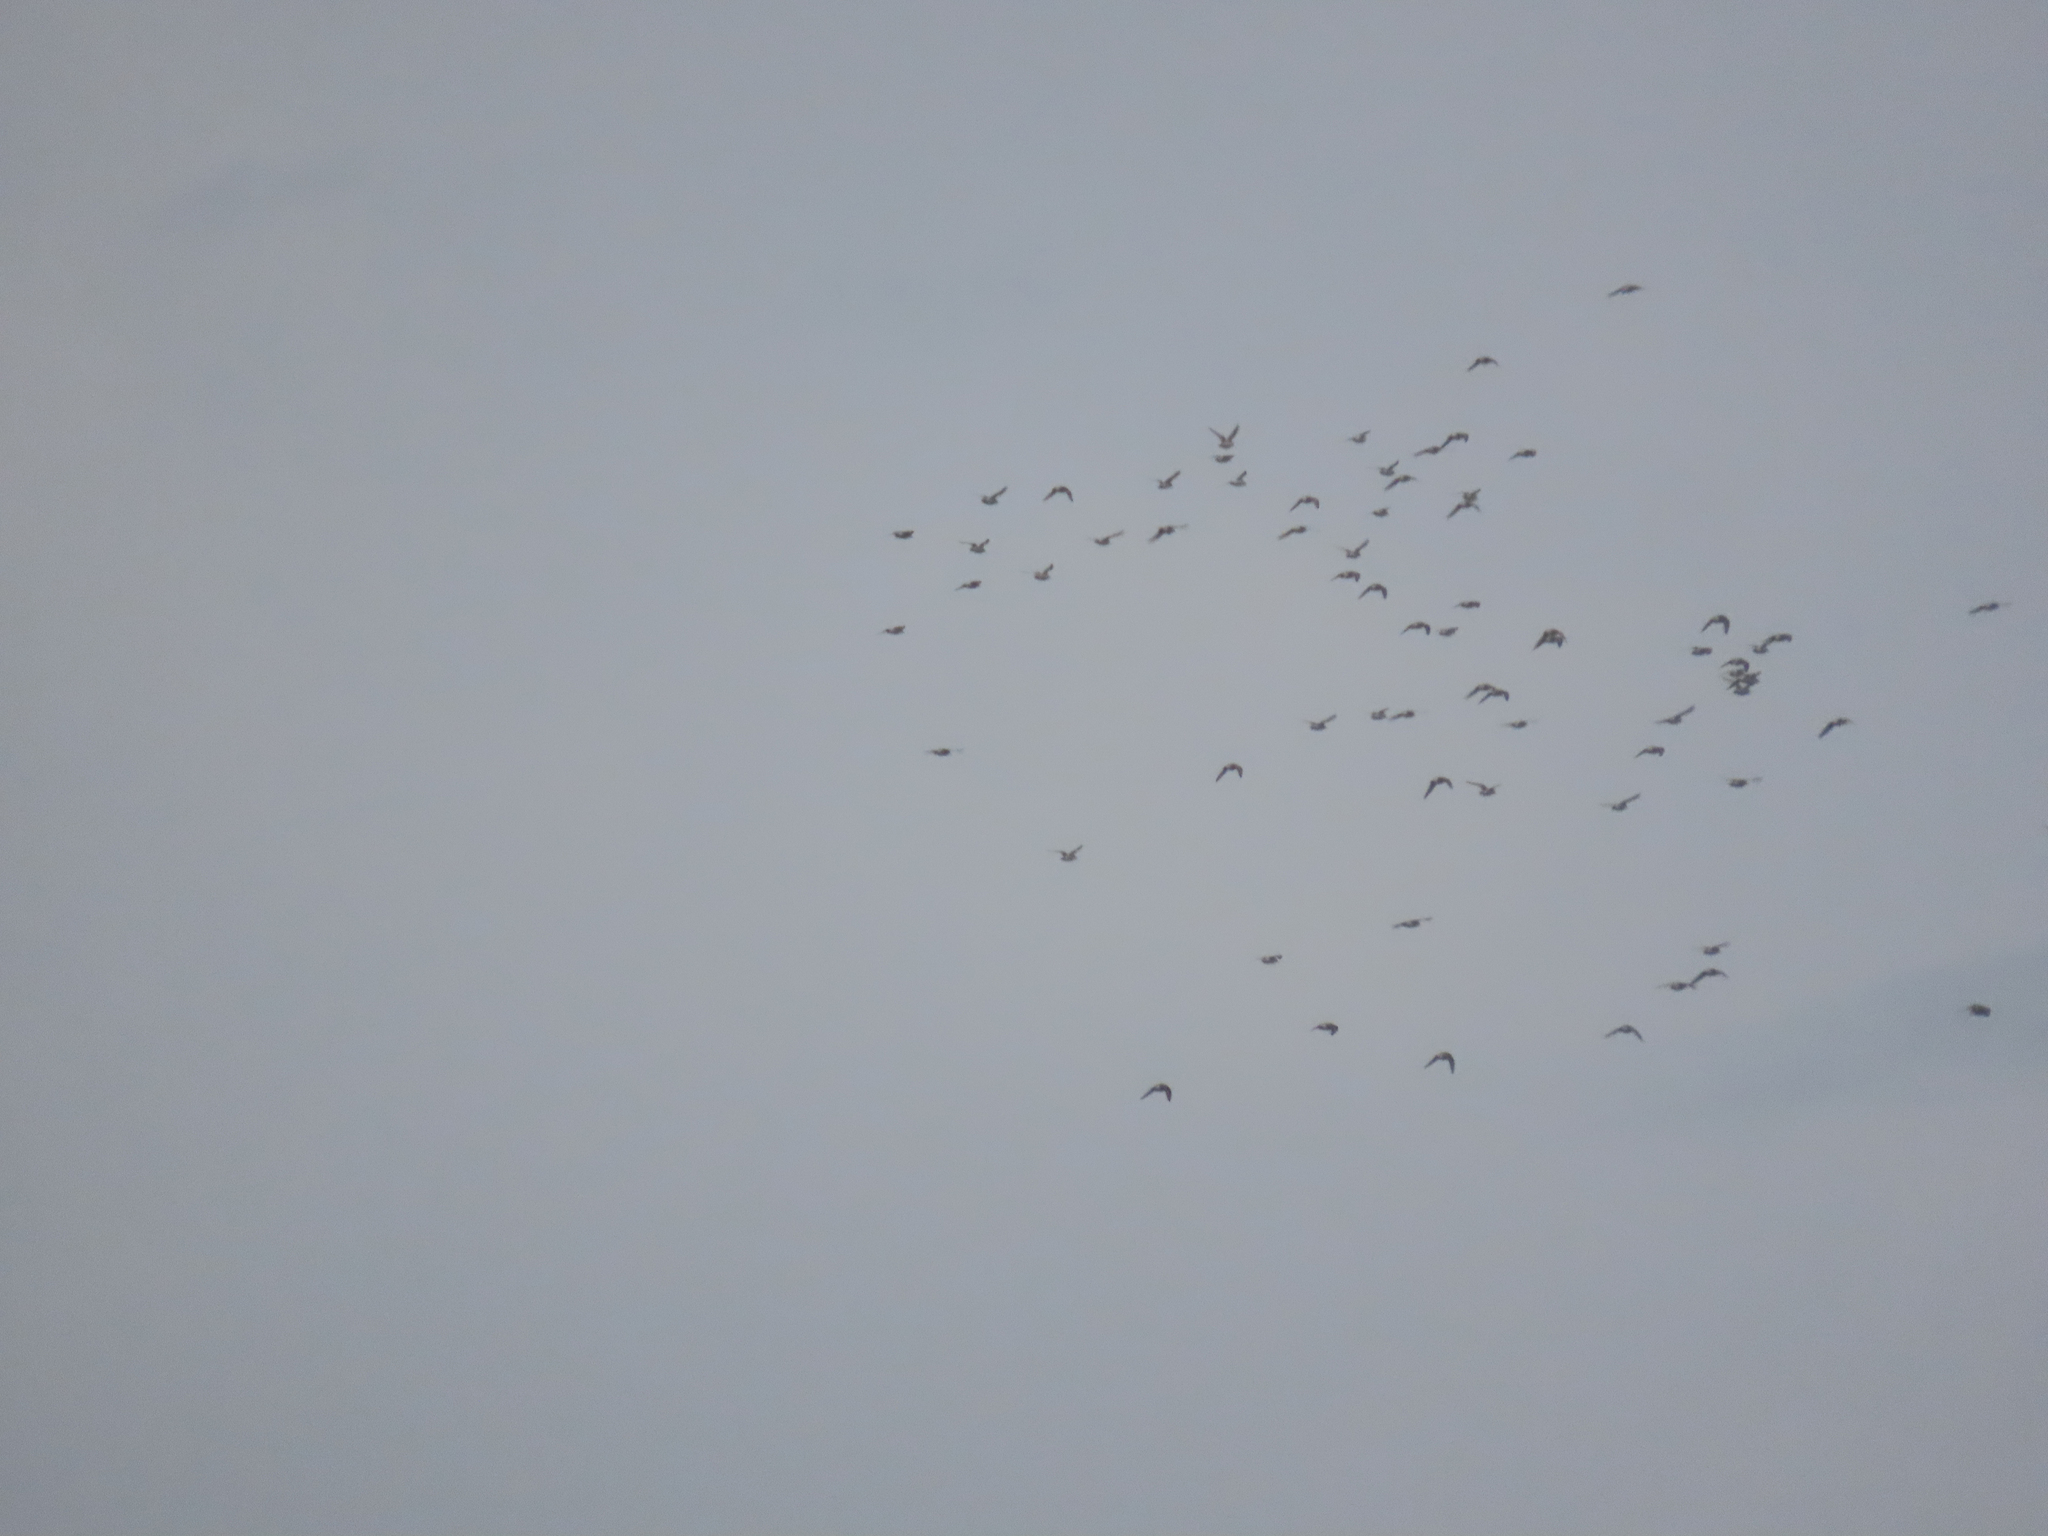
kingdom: Animalia
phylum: Chordata
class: Aves
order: Charadriiformes
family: Charadriidae
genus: Pluvialis
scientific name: Pluvialis squatarola
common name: Grey plover
